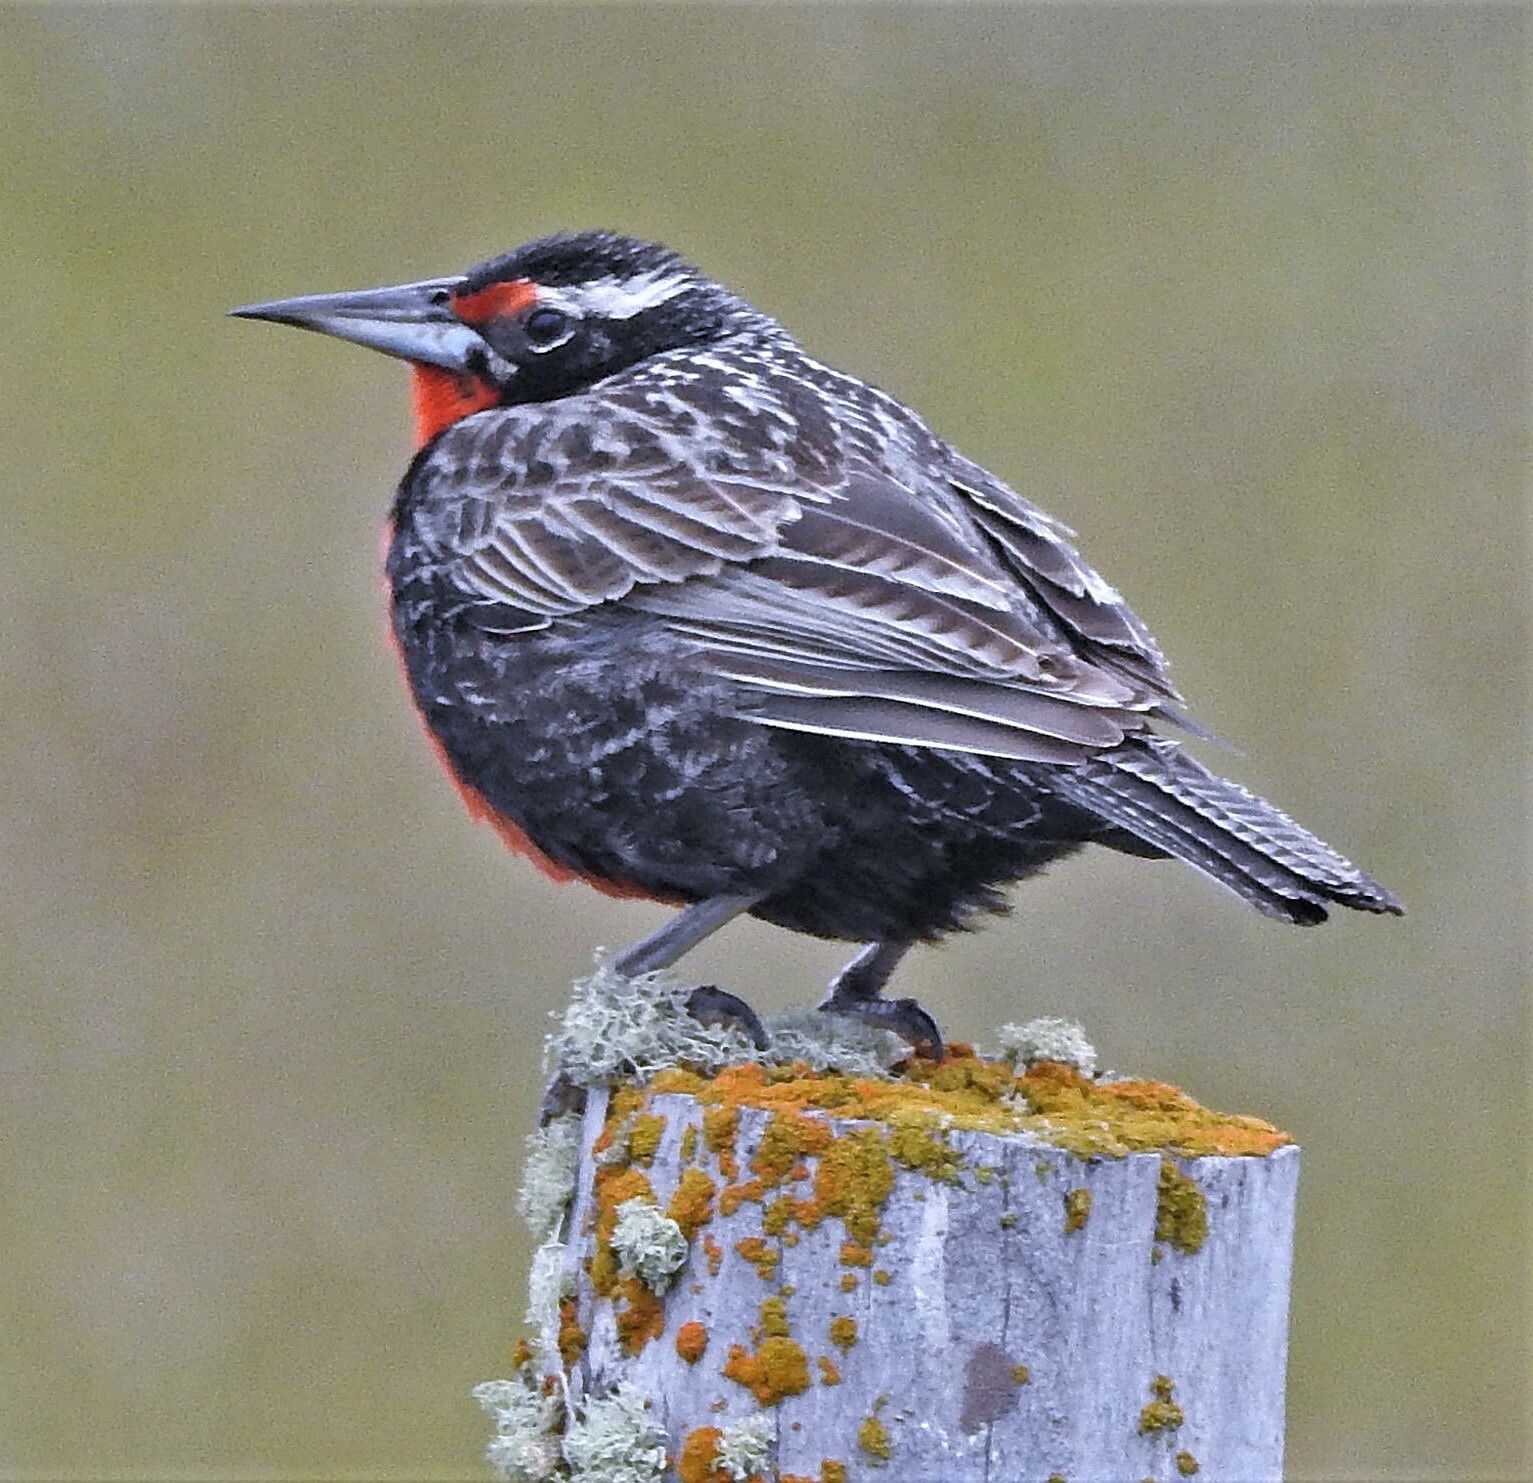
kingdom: Animalia
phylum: Chordata
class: Aves
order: Passeriformes
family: Icteridae
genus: Sturnella
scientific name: Sturnella loyca
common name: Long-tailed meadowlark
